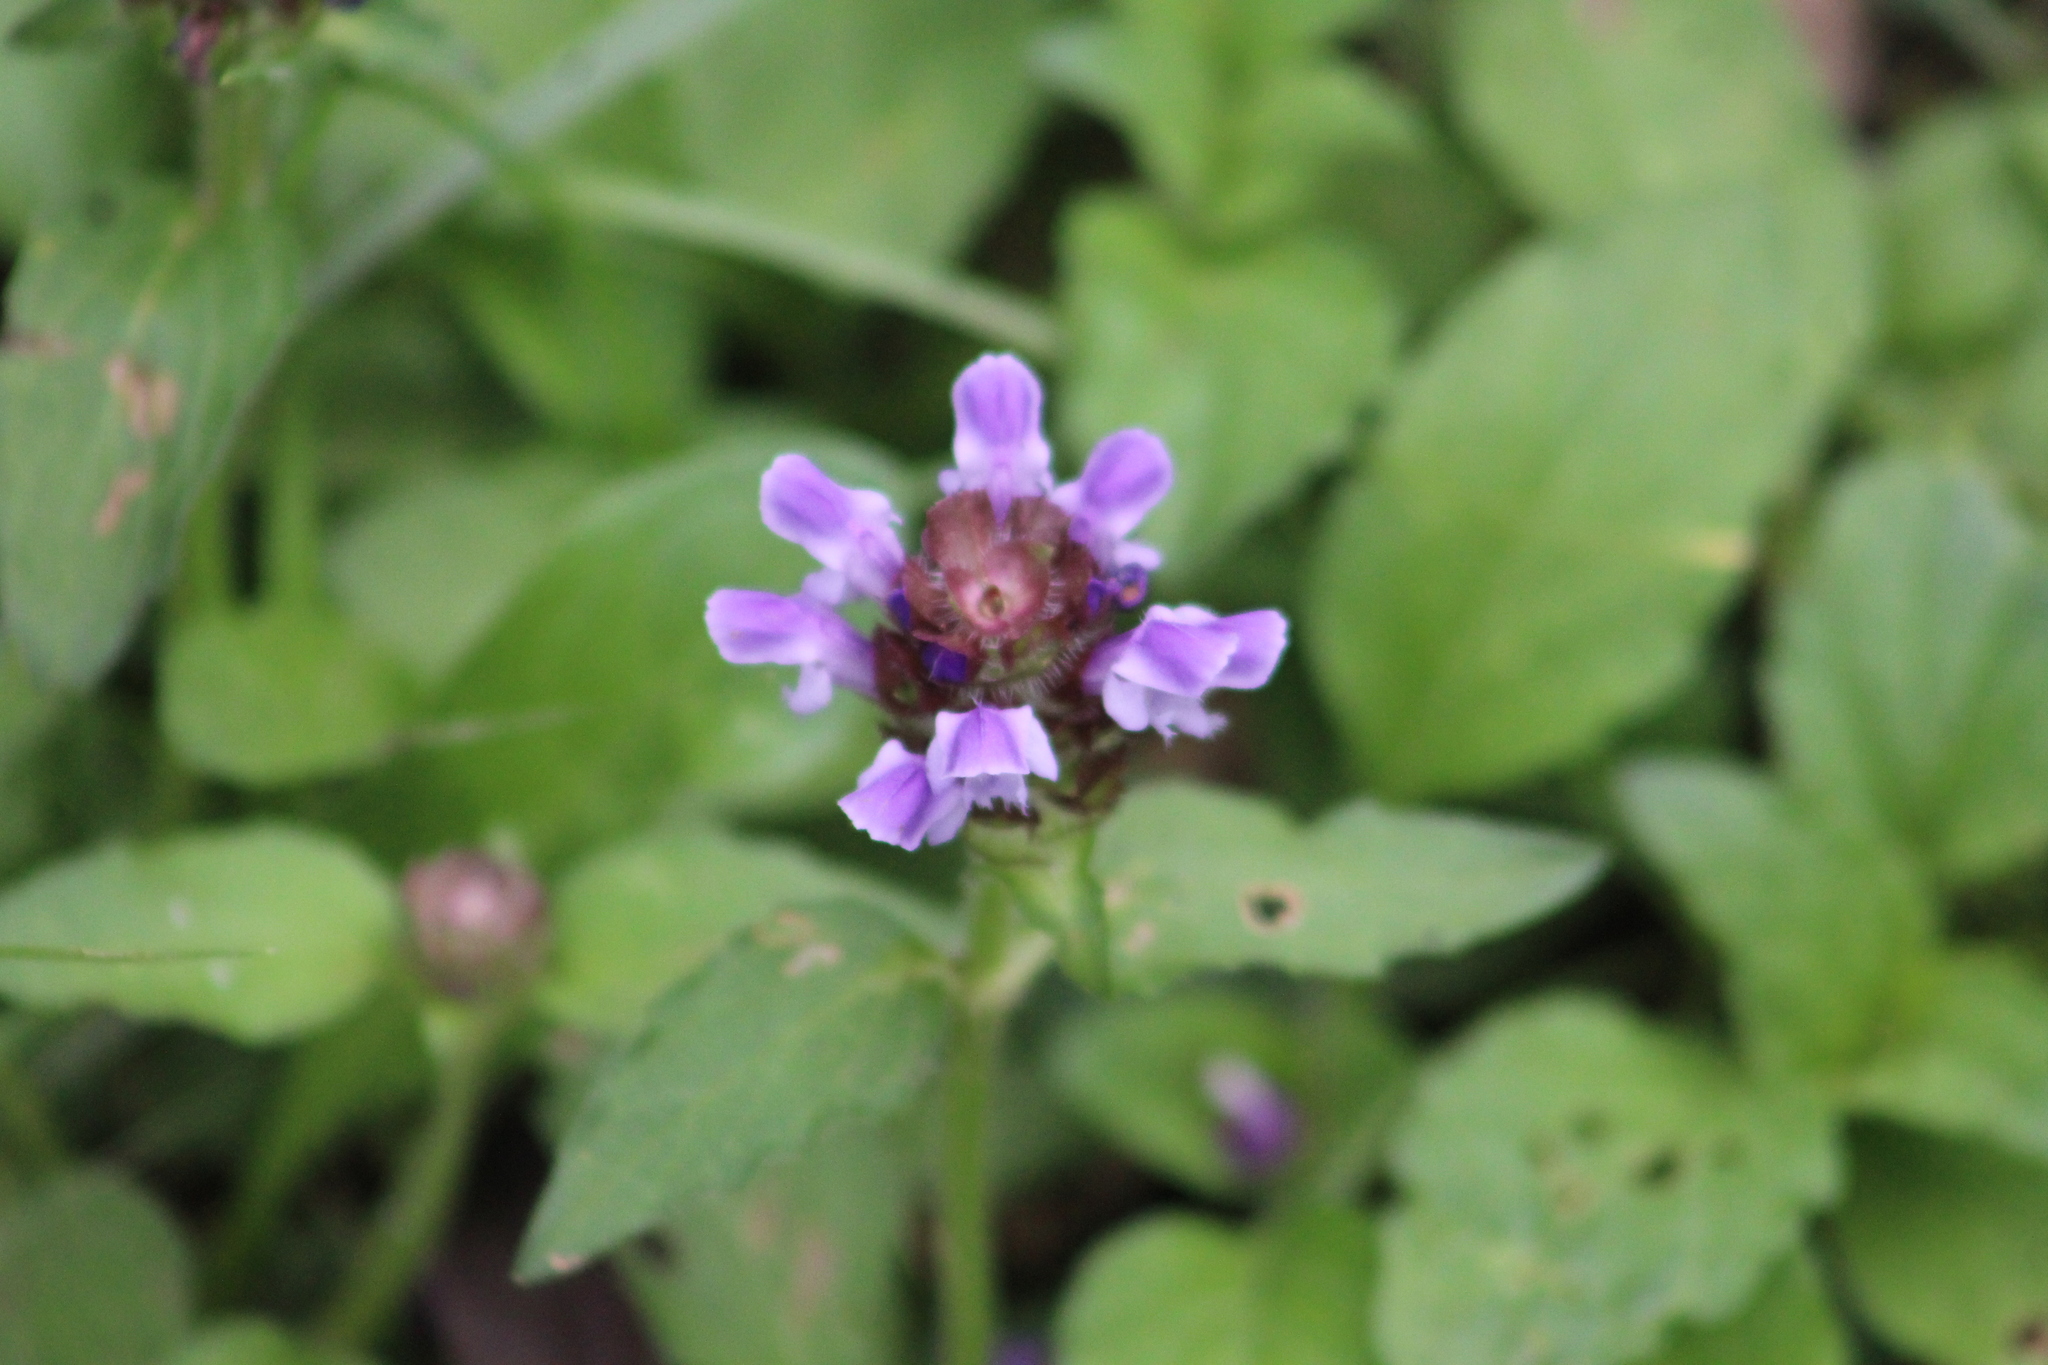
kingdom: Plantae
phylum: Tracheophyta
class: Magnoliopsida
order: Lamiales
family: Lamiaceae
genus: Prunella
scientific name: Prunella vulgaris
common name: Heal-all
